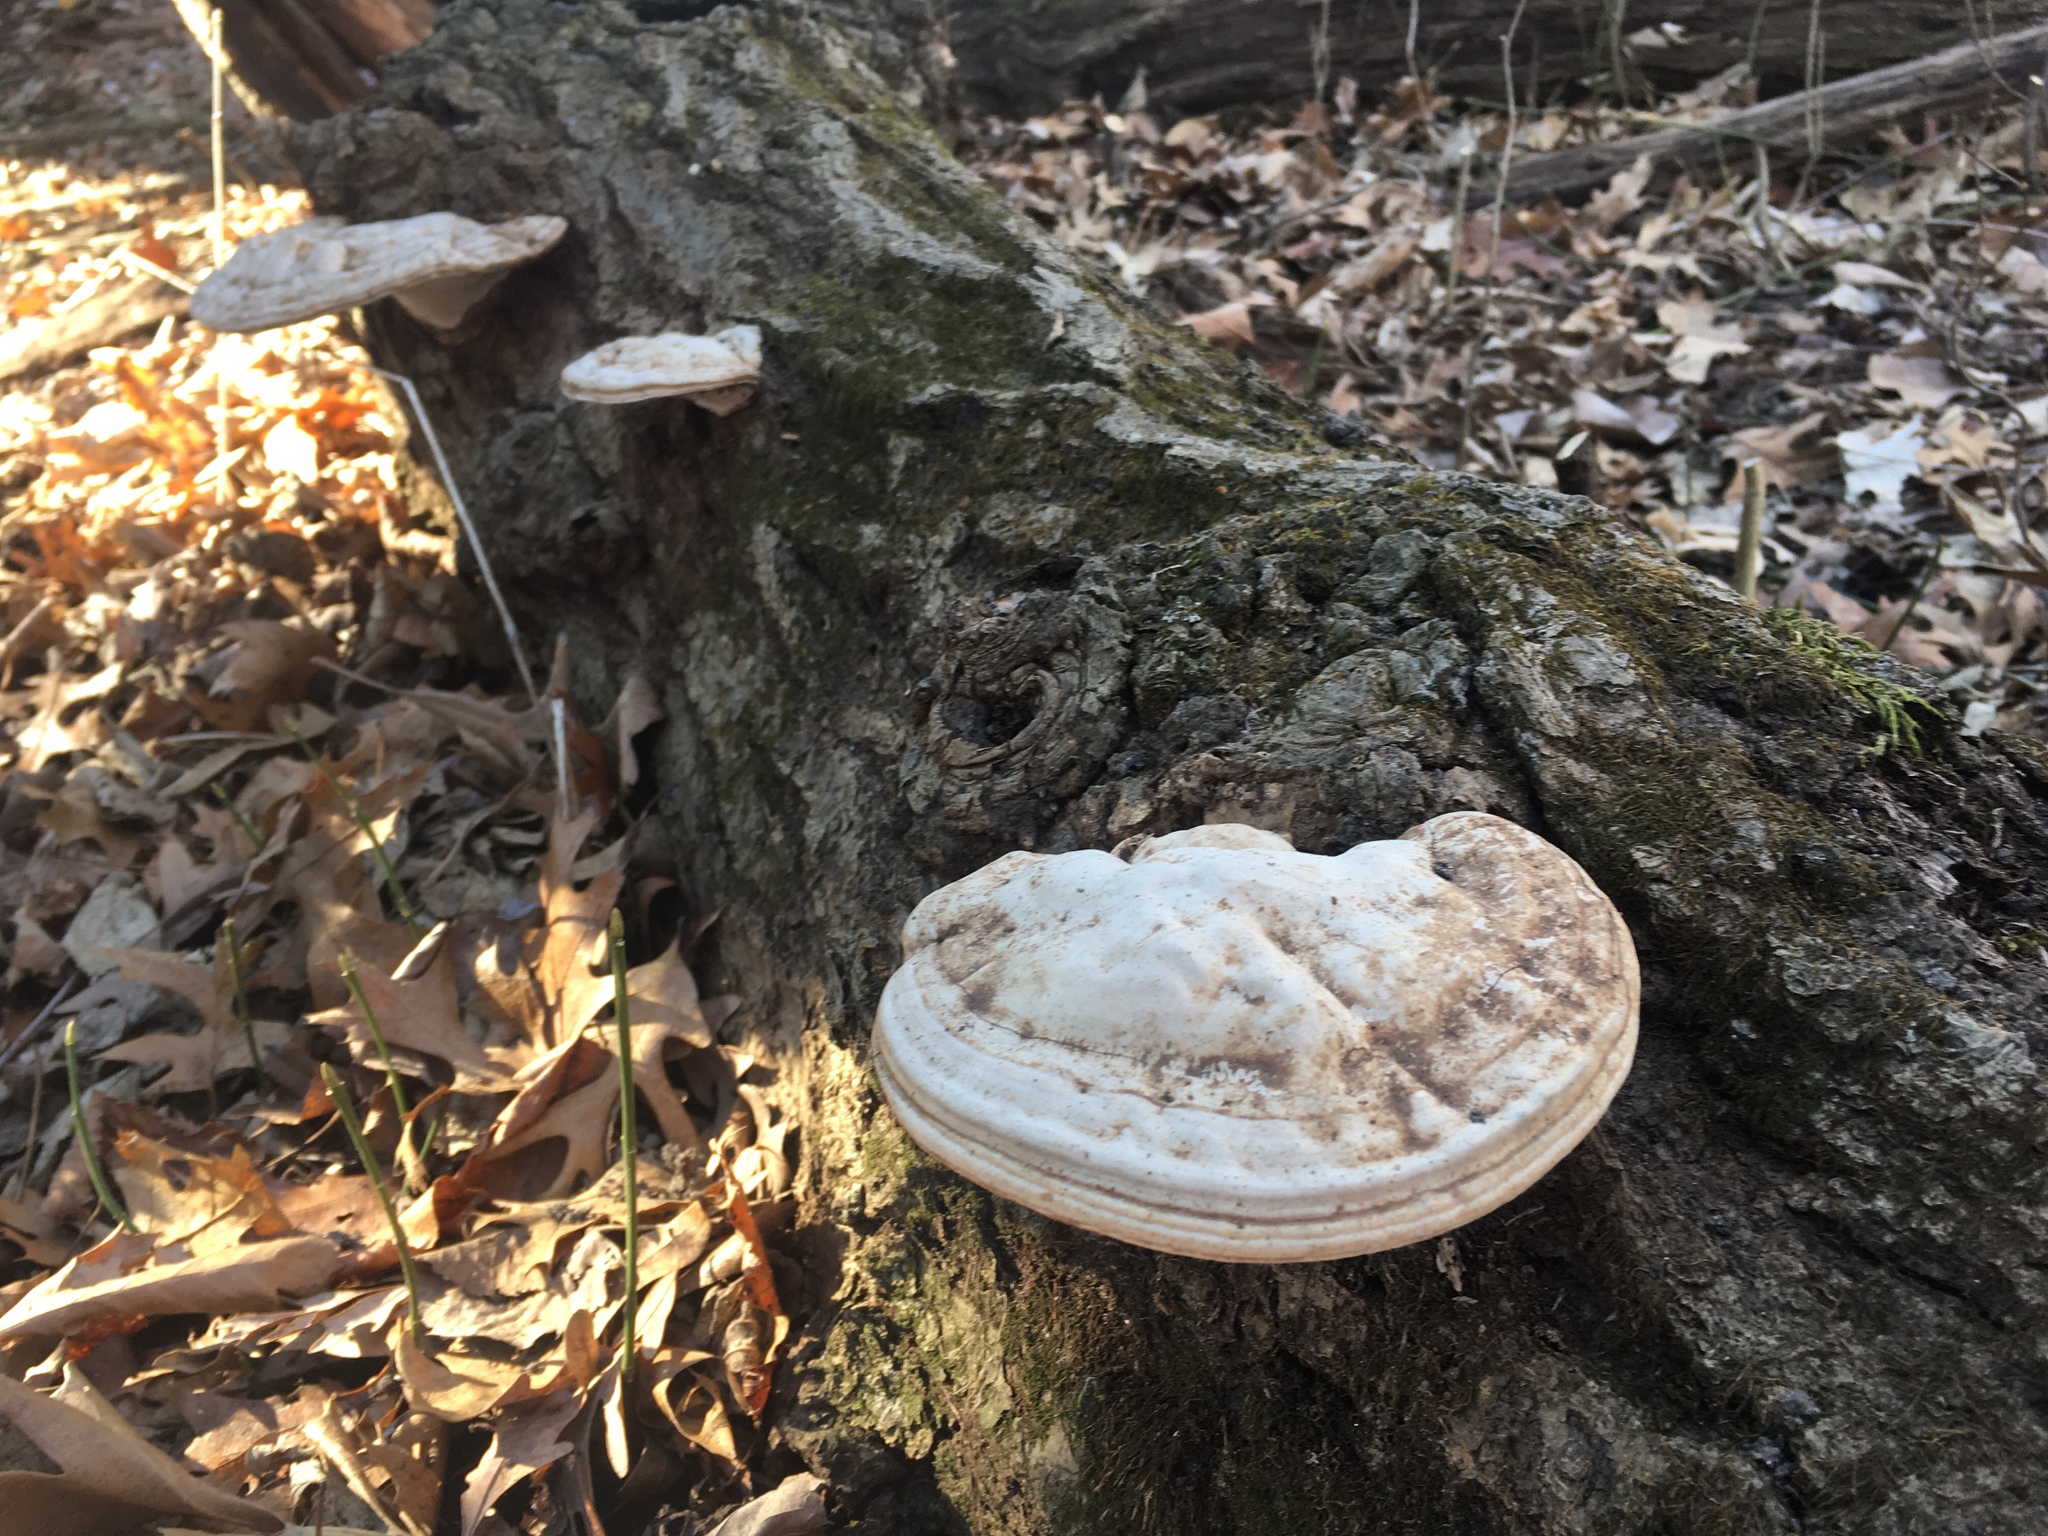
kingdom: Fungi
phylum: Basidiomycota
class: Agaricomycetes
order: Polyporales
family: Polyporaceae
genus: Ganoderma
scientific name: Ganoderma applanatum
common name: Artist's bracket
